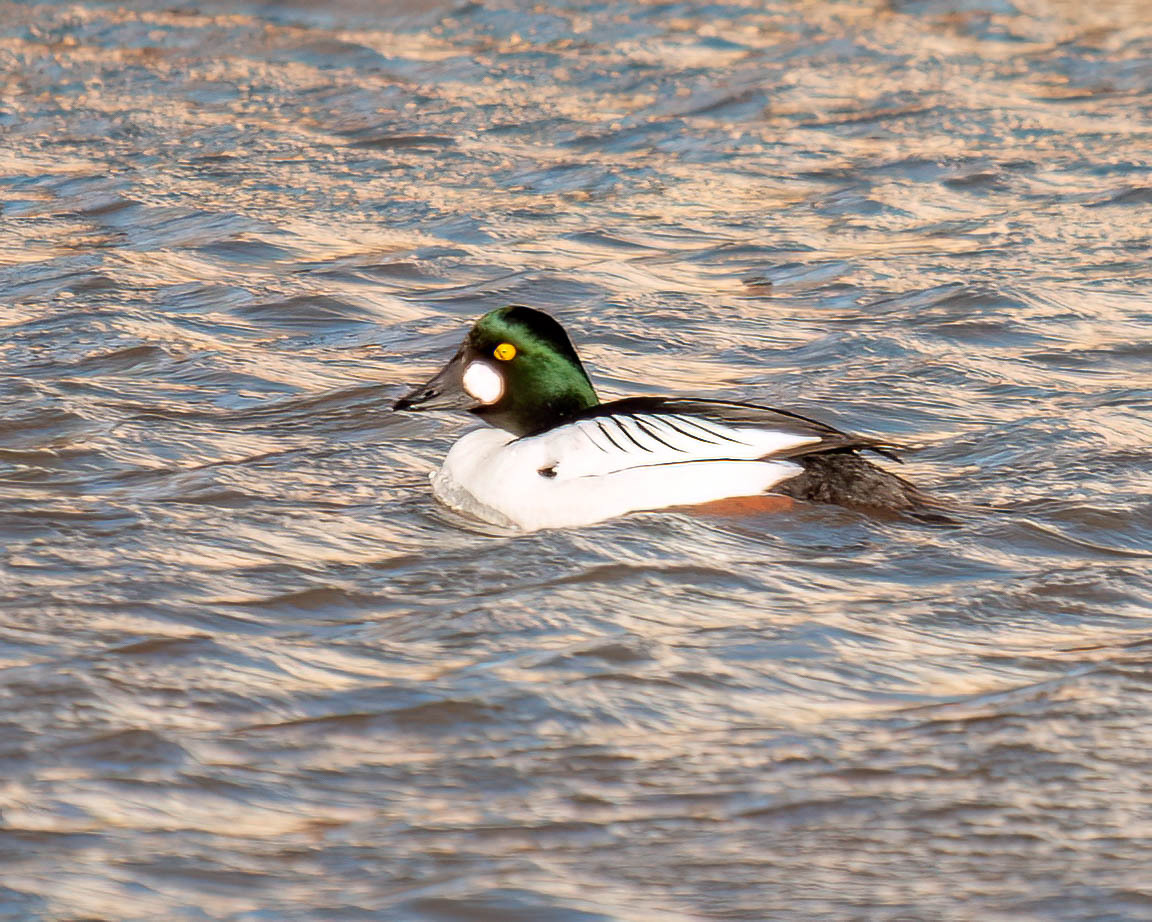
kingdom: Animalia
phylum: Chordata
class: Aves
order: Anseriformes
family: Anatidae
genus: Bucephala
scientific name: Bucephala clangula
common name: Common goldeneye
